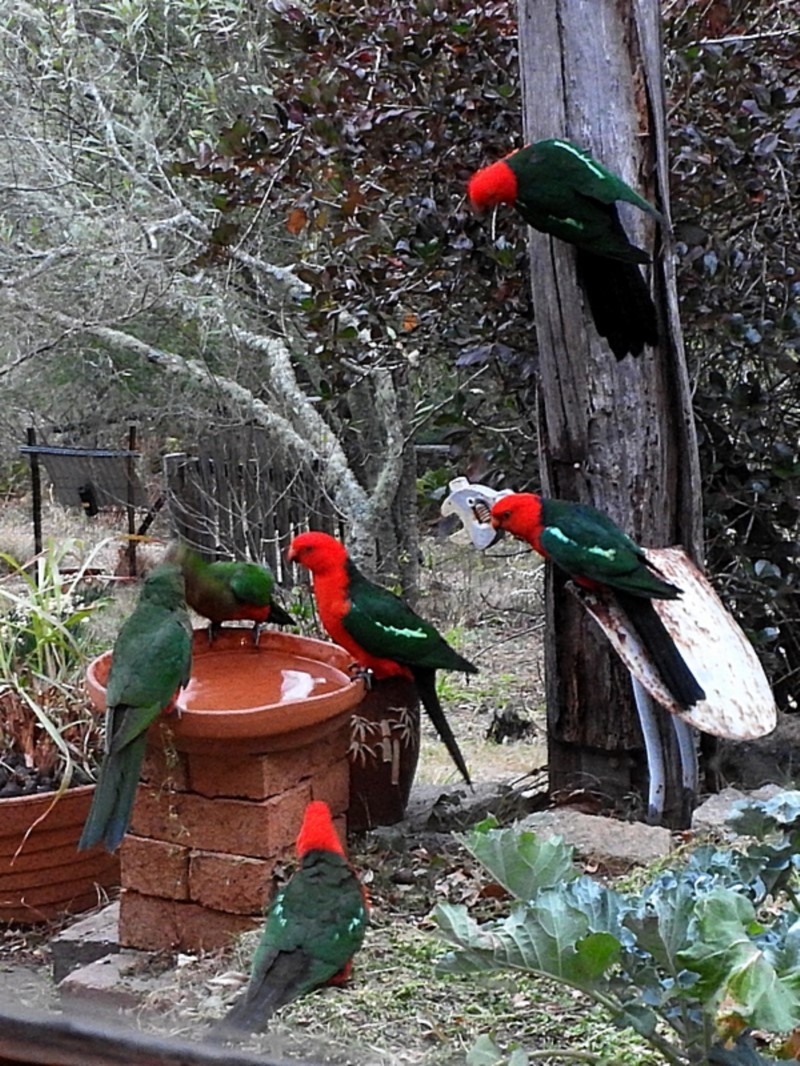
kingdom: Animalia
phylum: Chordata
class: Aves
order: Psittaciformes
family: Psittacidae
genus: Alisterus
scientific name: Alisterus scapularis
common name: Australian king parrot
